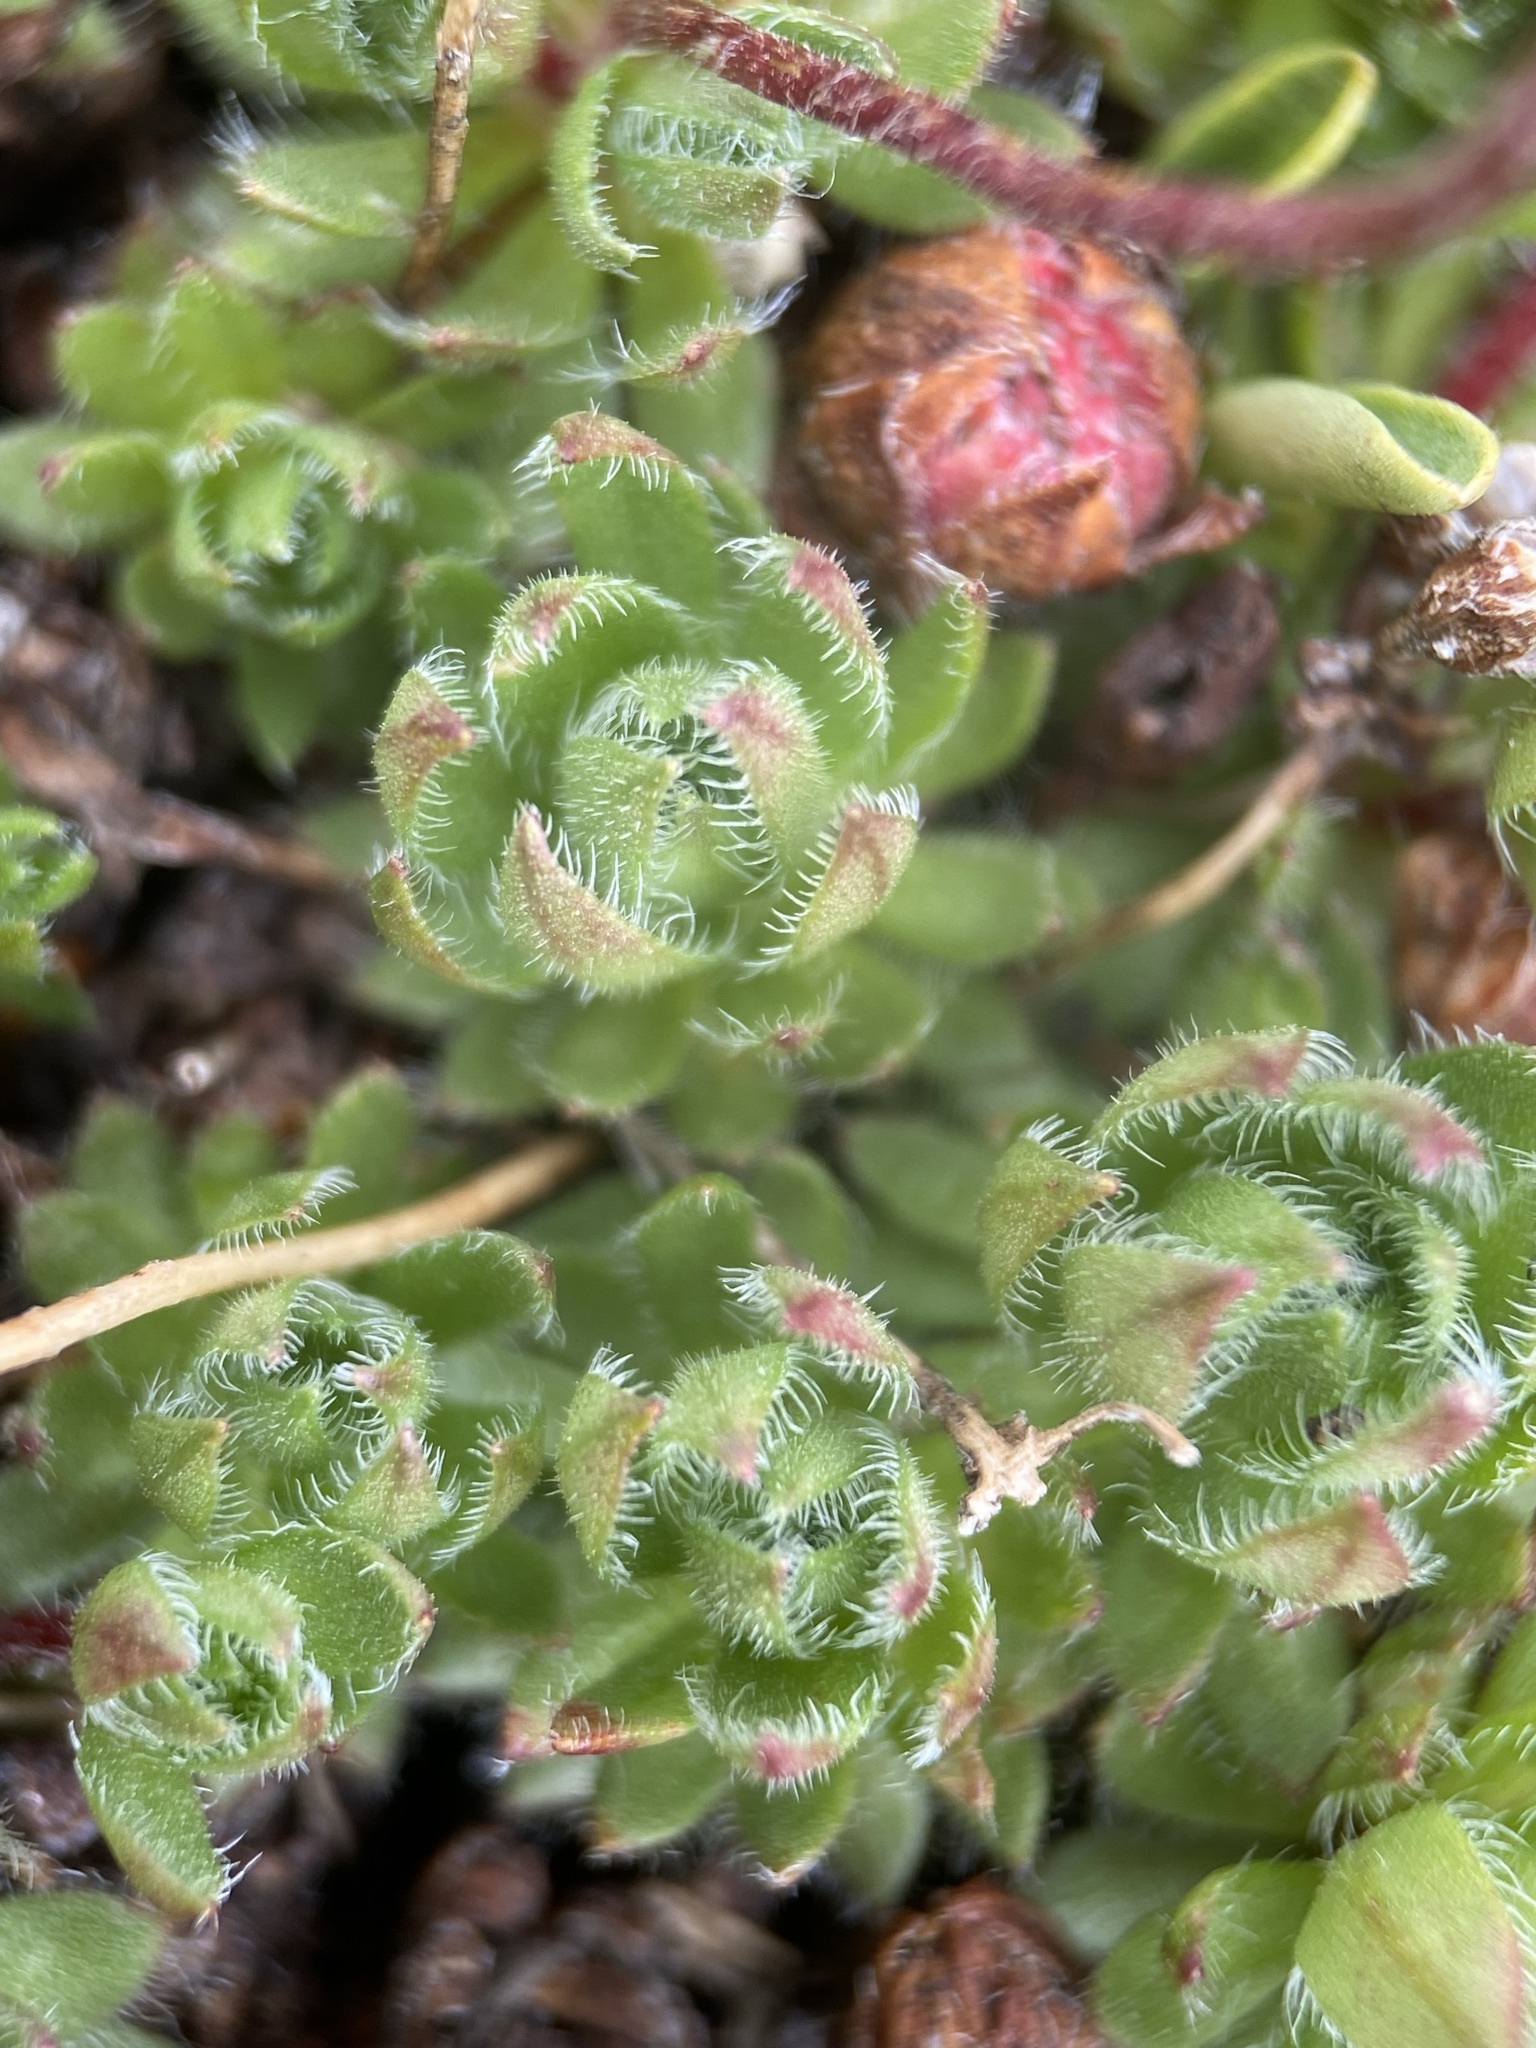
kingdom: Plantae
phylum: Tracheophyta
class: Magnoliopsida
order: Ericales
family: Primulaceae
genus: Androsace
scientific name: Androsace chamaejasme
